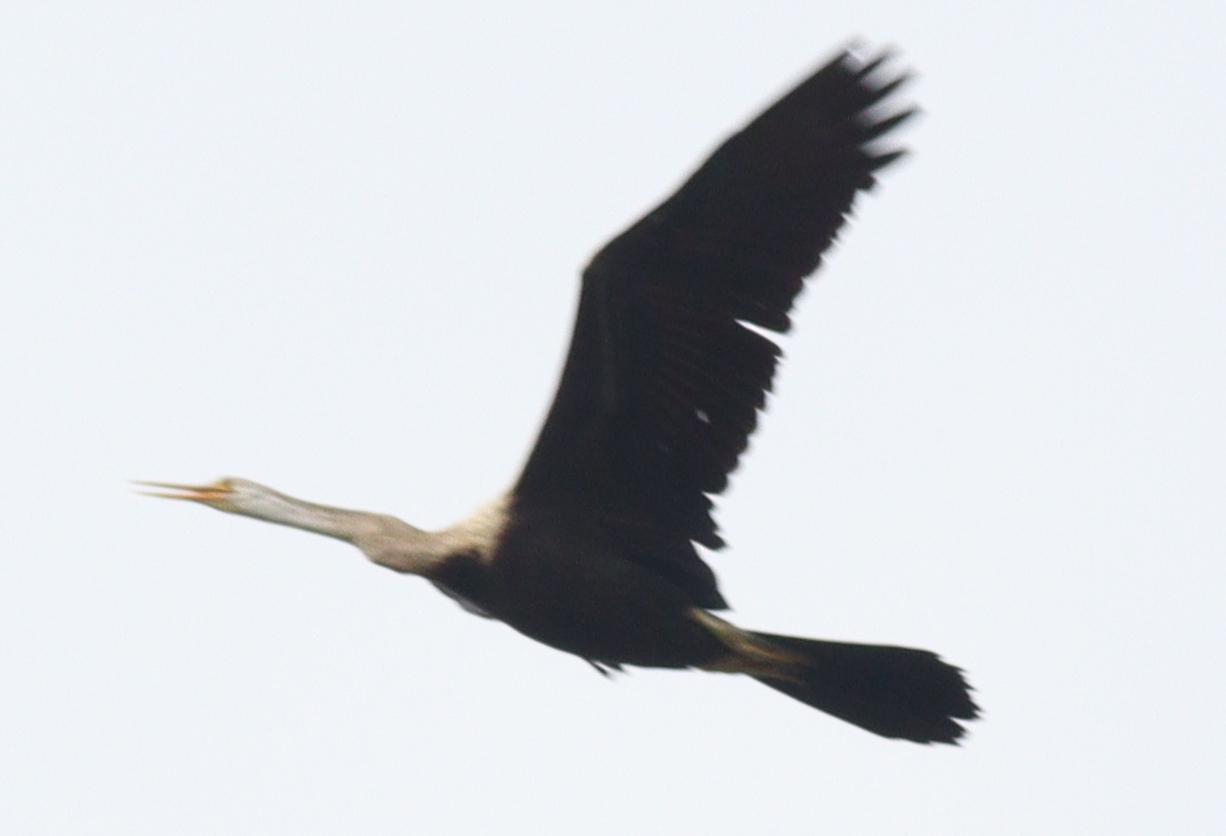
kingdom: Animalia
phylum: Chordata
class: Aves
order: Suliformes
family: Anhingidae
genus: Anhinga
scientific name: Anhinga melanogaster
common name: Oriental darter
